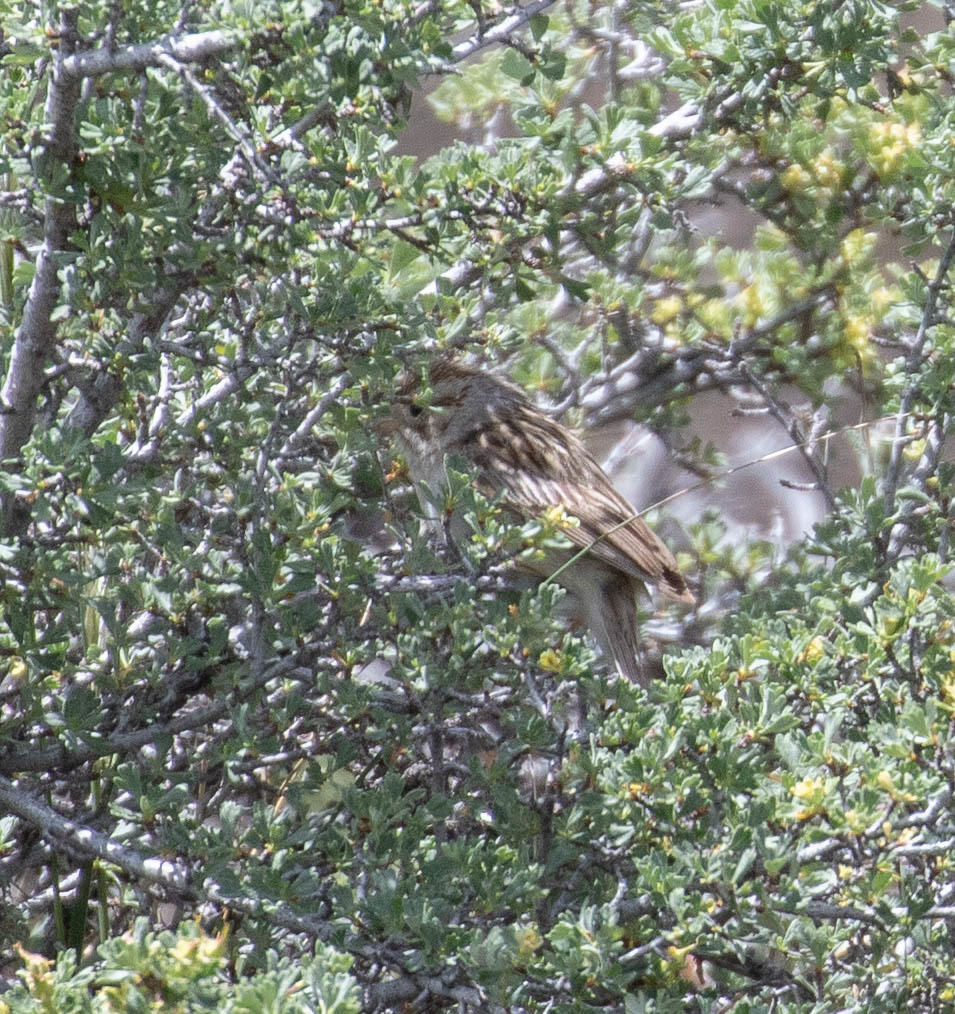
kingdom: Animalia
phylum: Chordata
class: Aves
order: Passeriformes
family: Passerellidae
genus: Spizella
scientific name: Spizella breweri
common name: Brewer's sparrow
